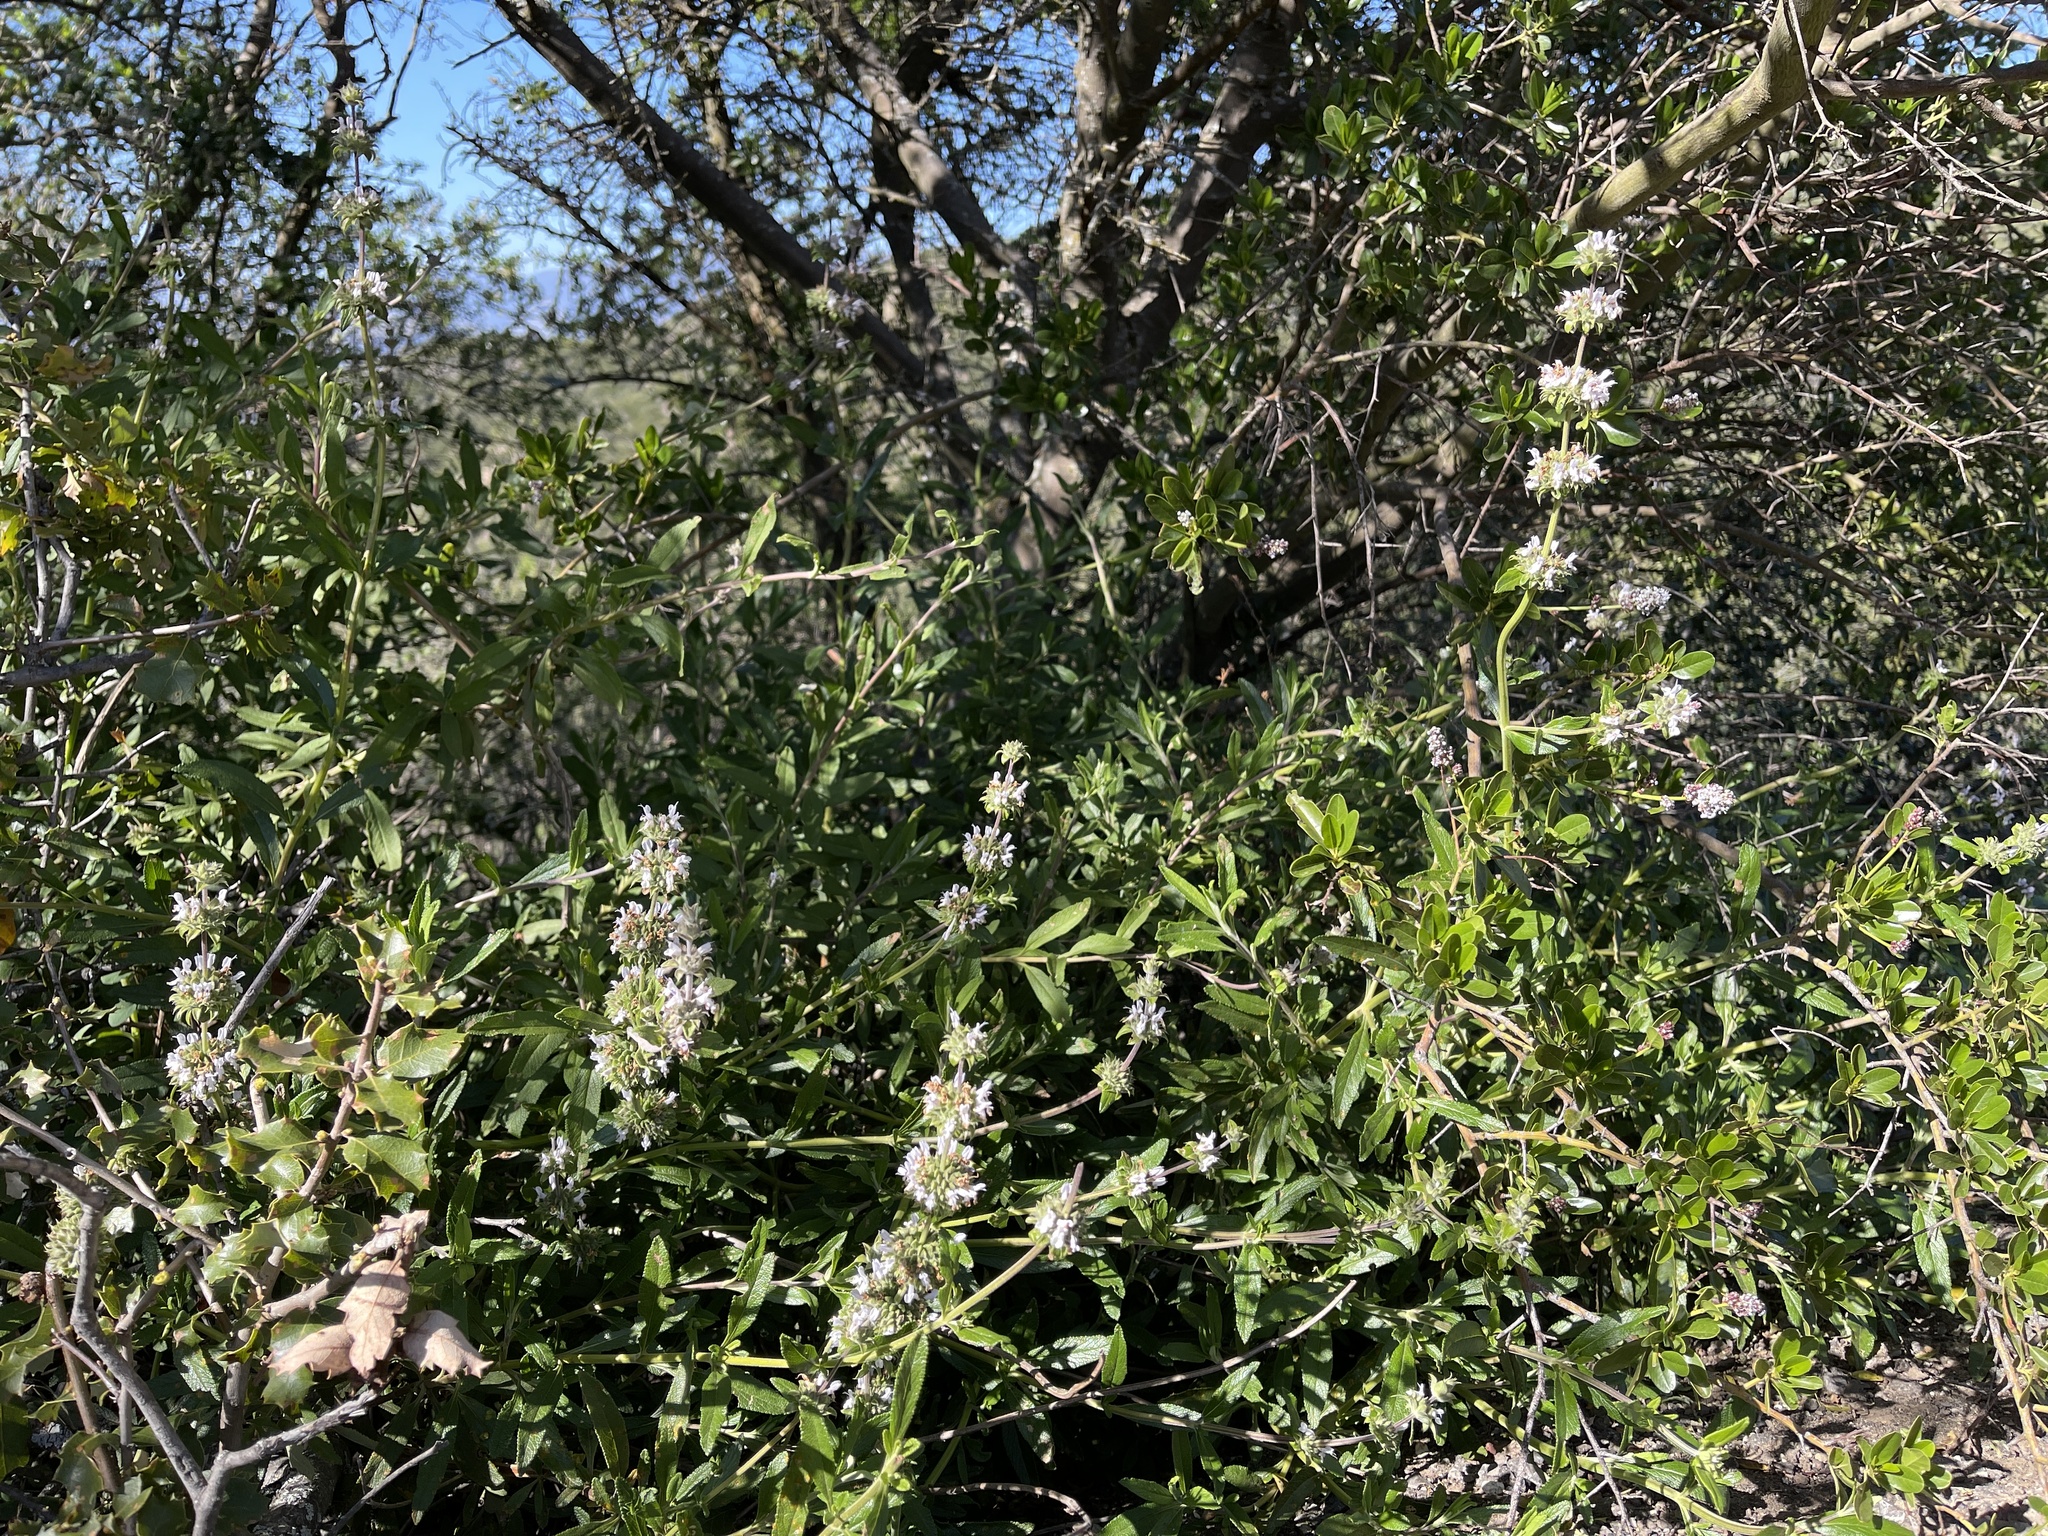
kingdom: Plantae
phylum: Tracheophyta
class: Magnoliopsida
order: Lamiales
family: Lamiaceae
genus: Salvia
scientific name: Salvia mellifera
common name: Black sage
